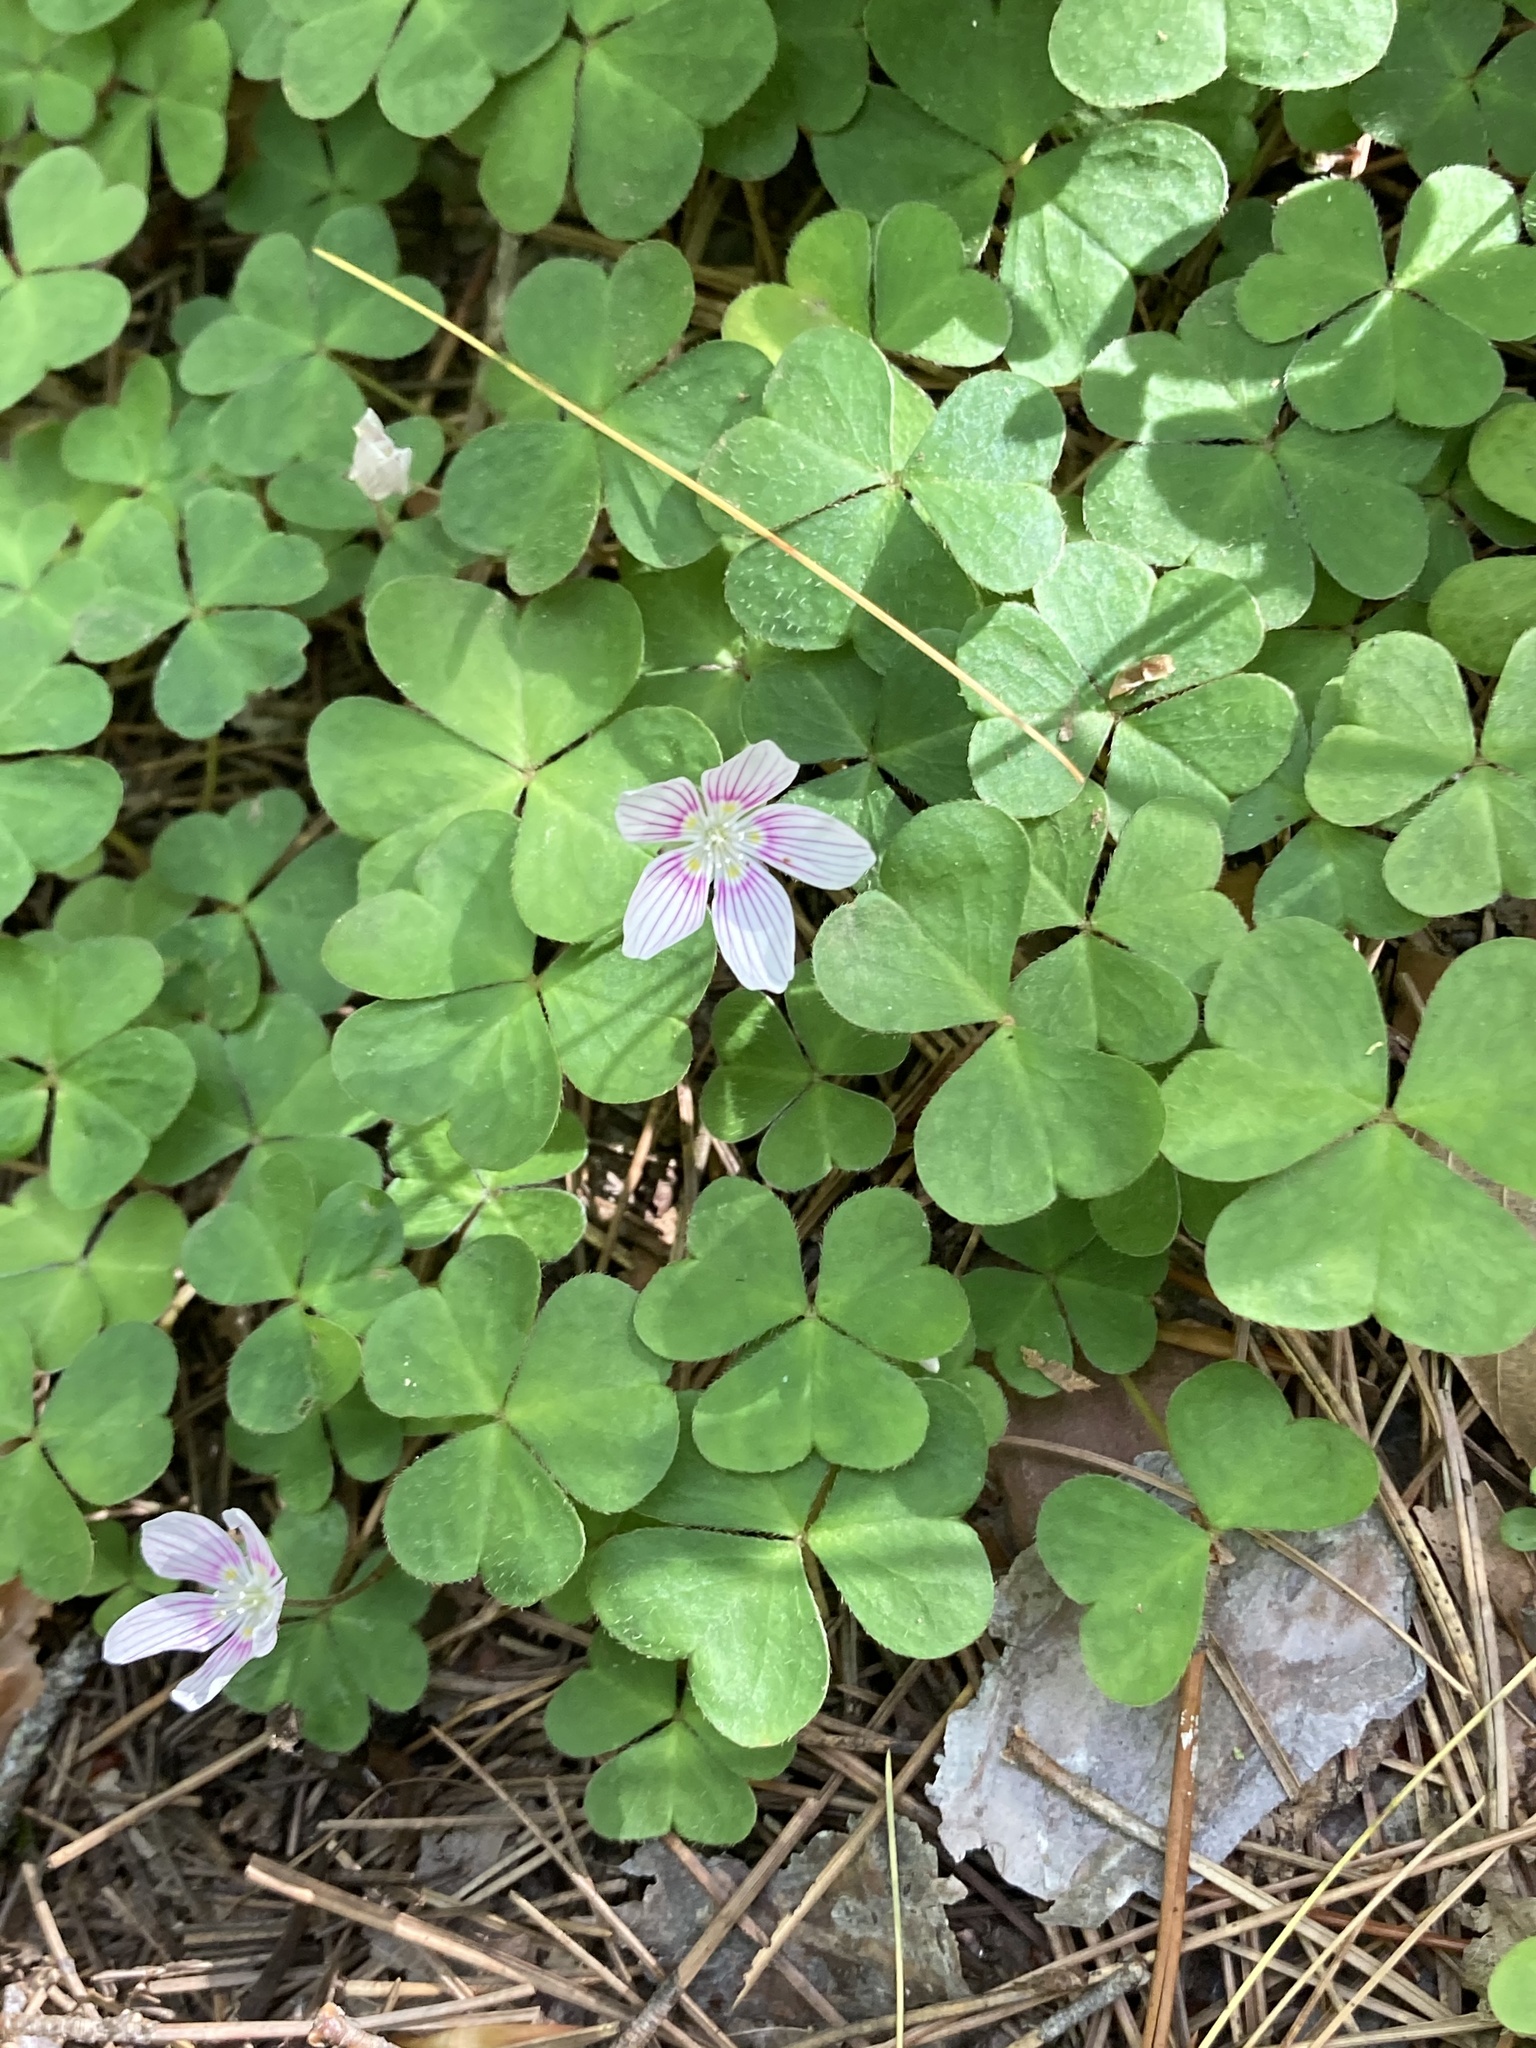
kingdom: Plantae
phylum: Tracheophyta
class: Magnoliopsida
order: Oxalidales
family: Oxalidaceae
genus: Oxalis
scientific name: Oxalis montana
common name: American wood-sorrel
